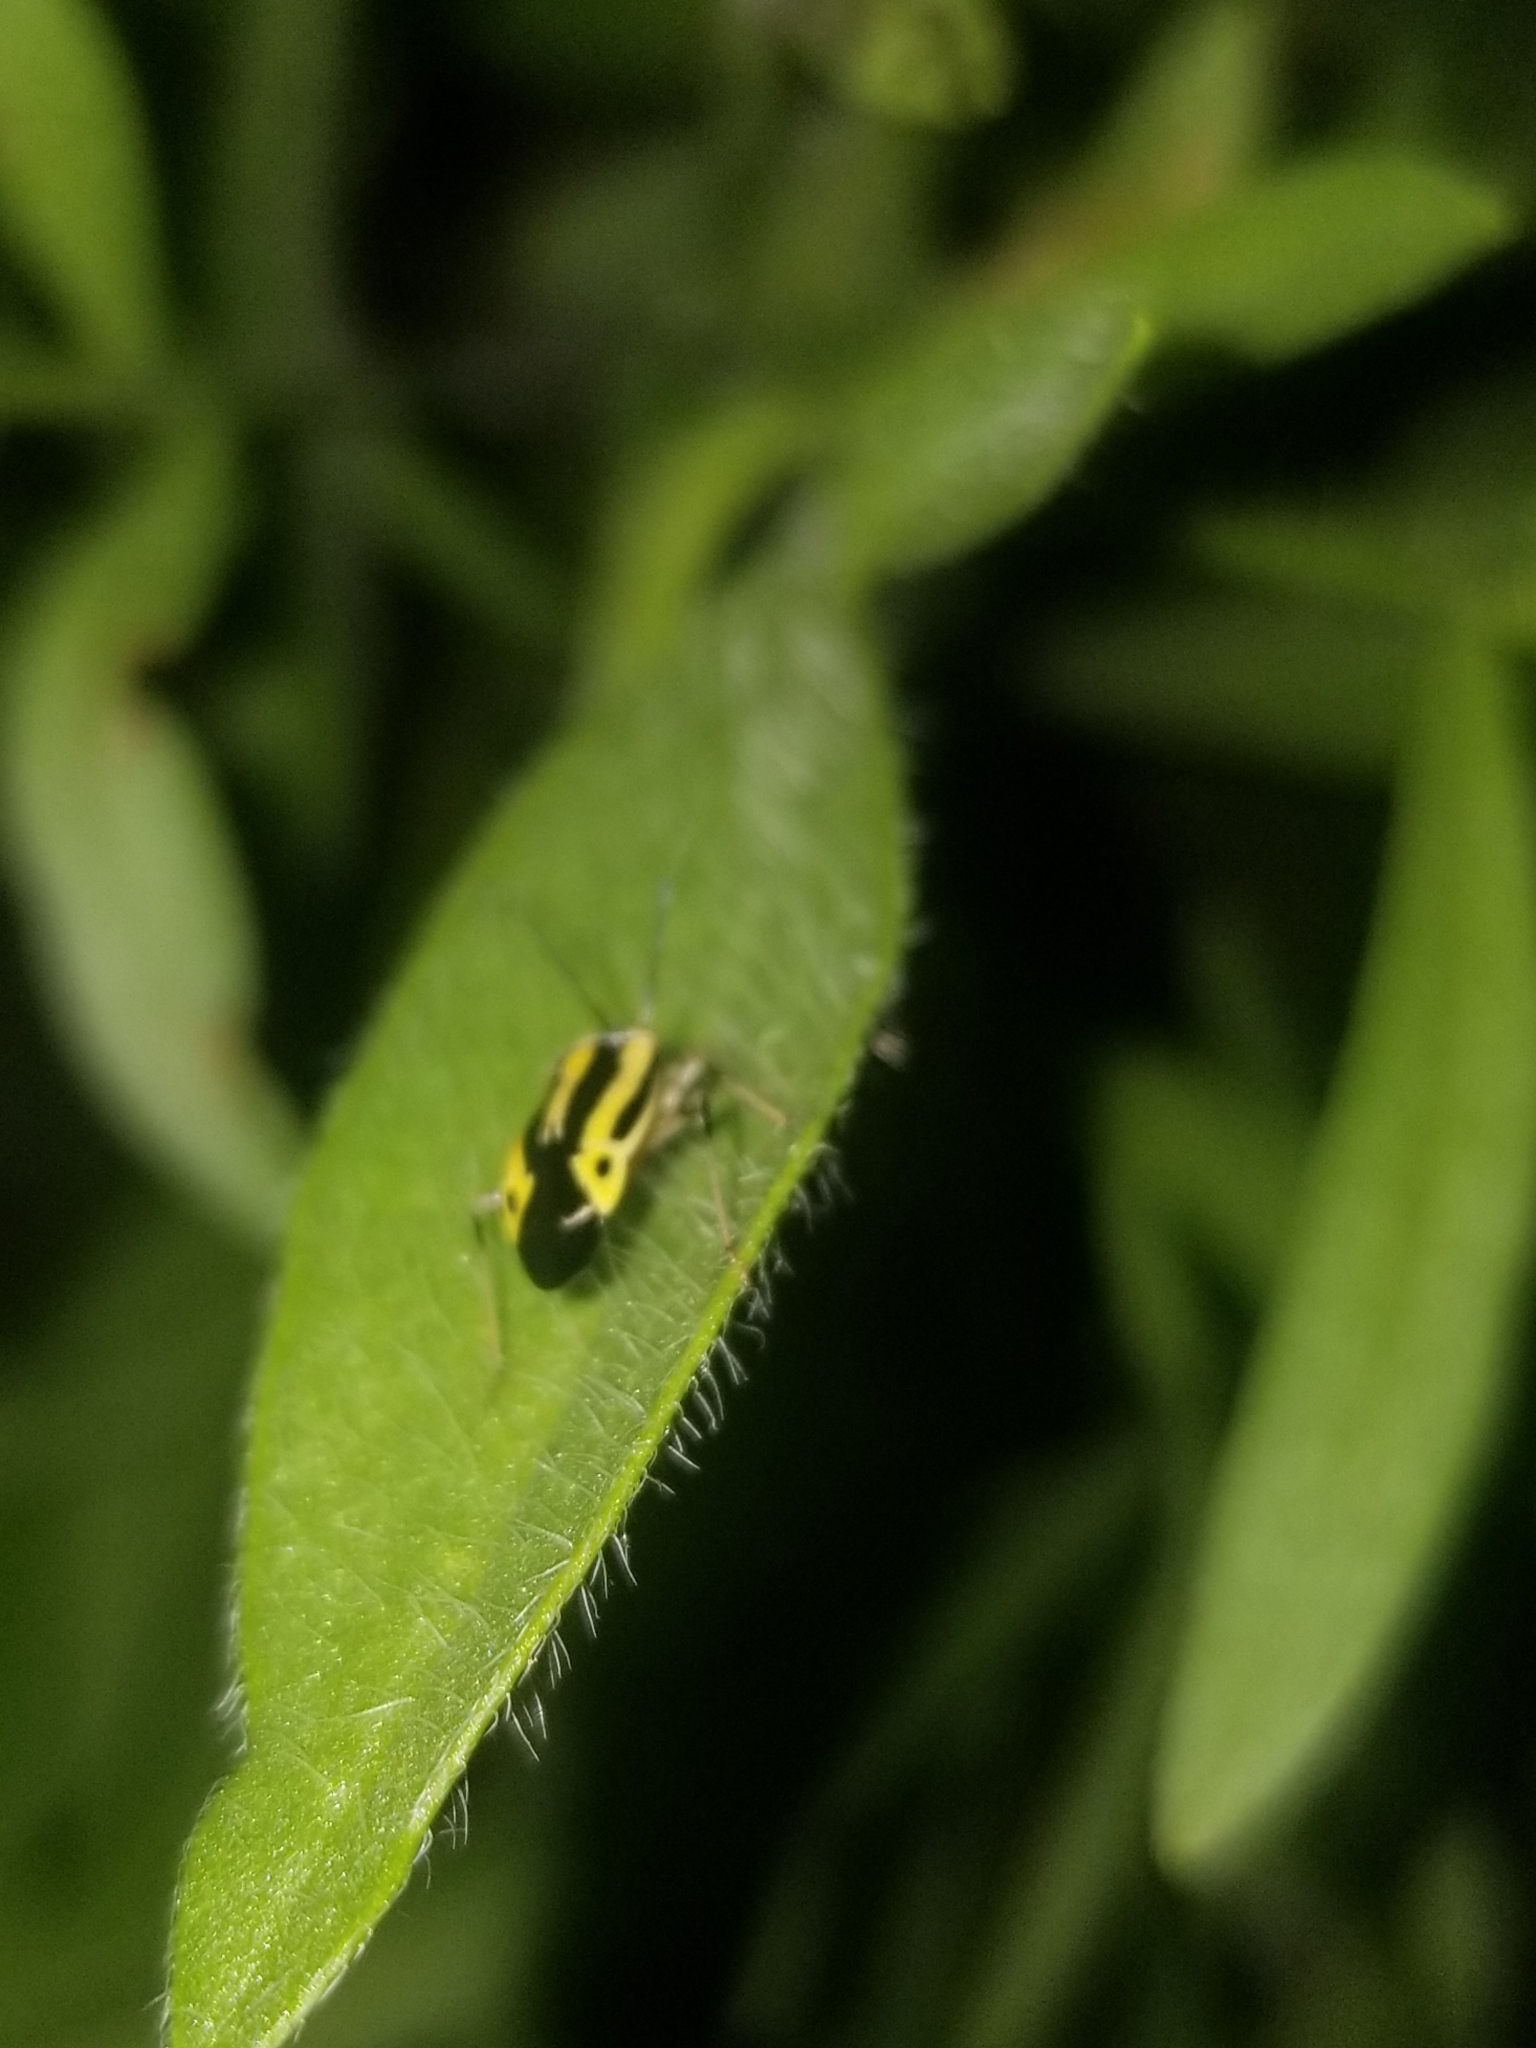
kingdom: Animalia
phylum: Arthropoda
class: Insecta
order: Hemiptera
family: Miridae
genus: Poecilocapsus
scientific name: Poecilocapsus lineatus
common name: Four-lined plant bug
